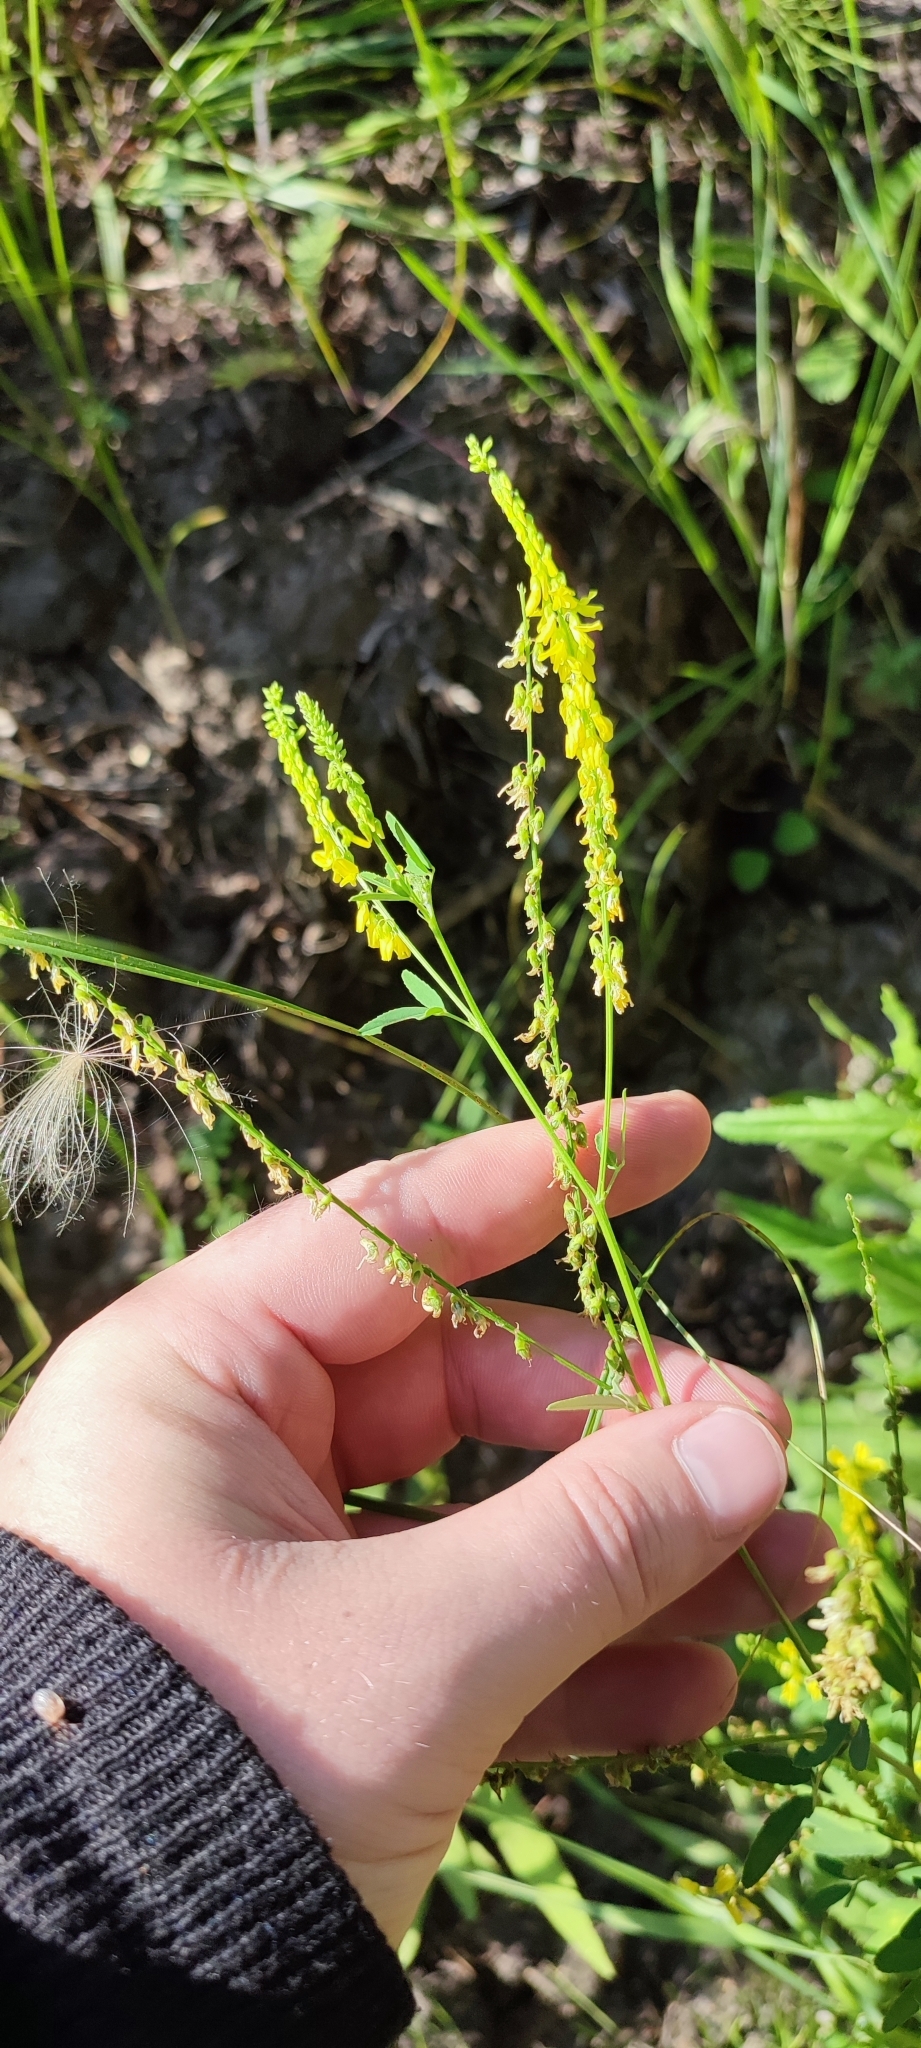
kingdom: Plantae
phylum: Tracheophyta
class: Magnoliopsida
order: Fabales
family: Fabaceae
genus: Melilotus
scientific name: Melilotus officinalis
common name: Sweetclover
